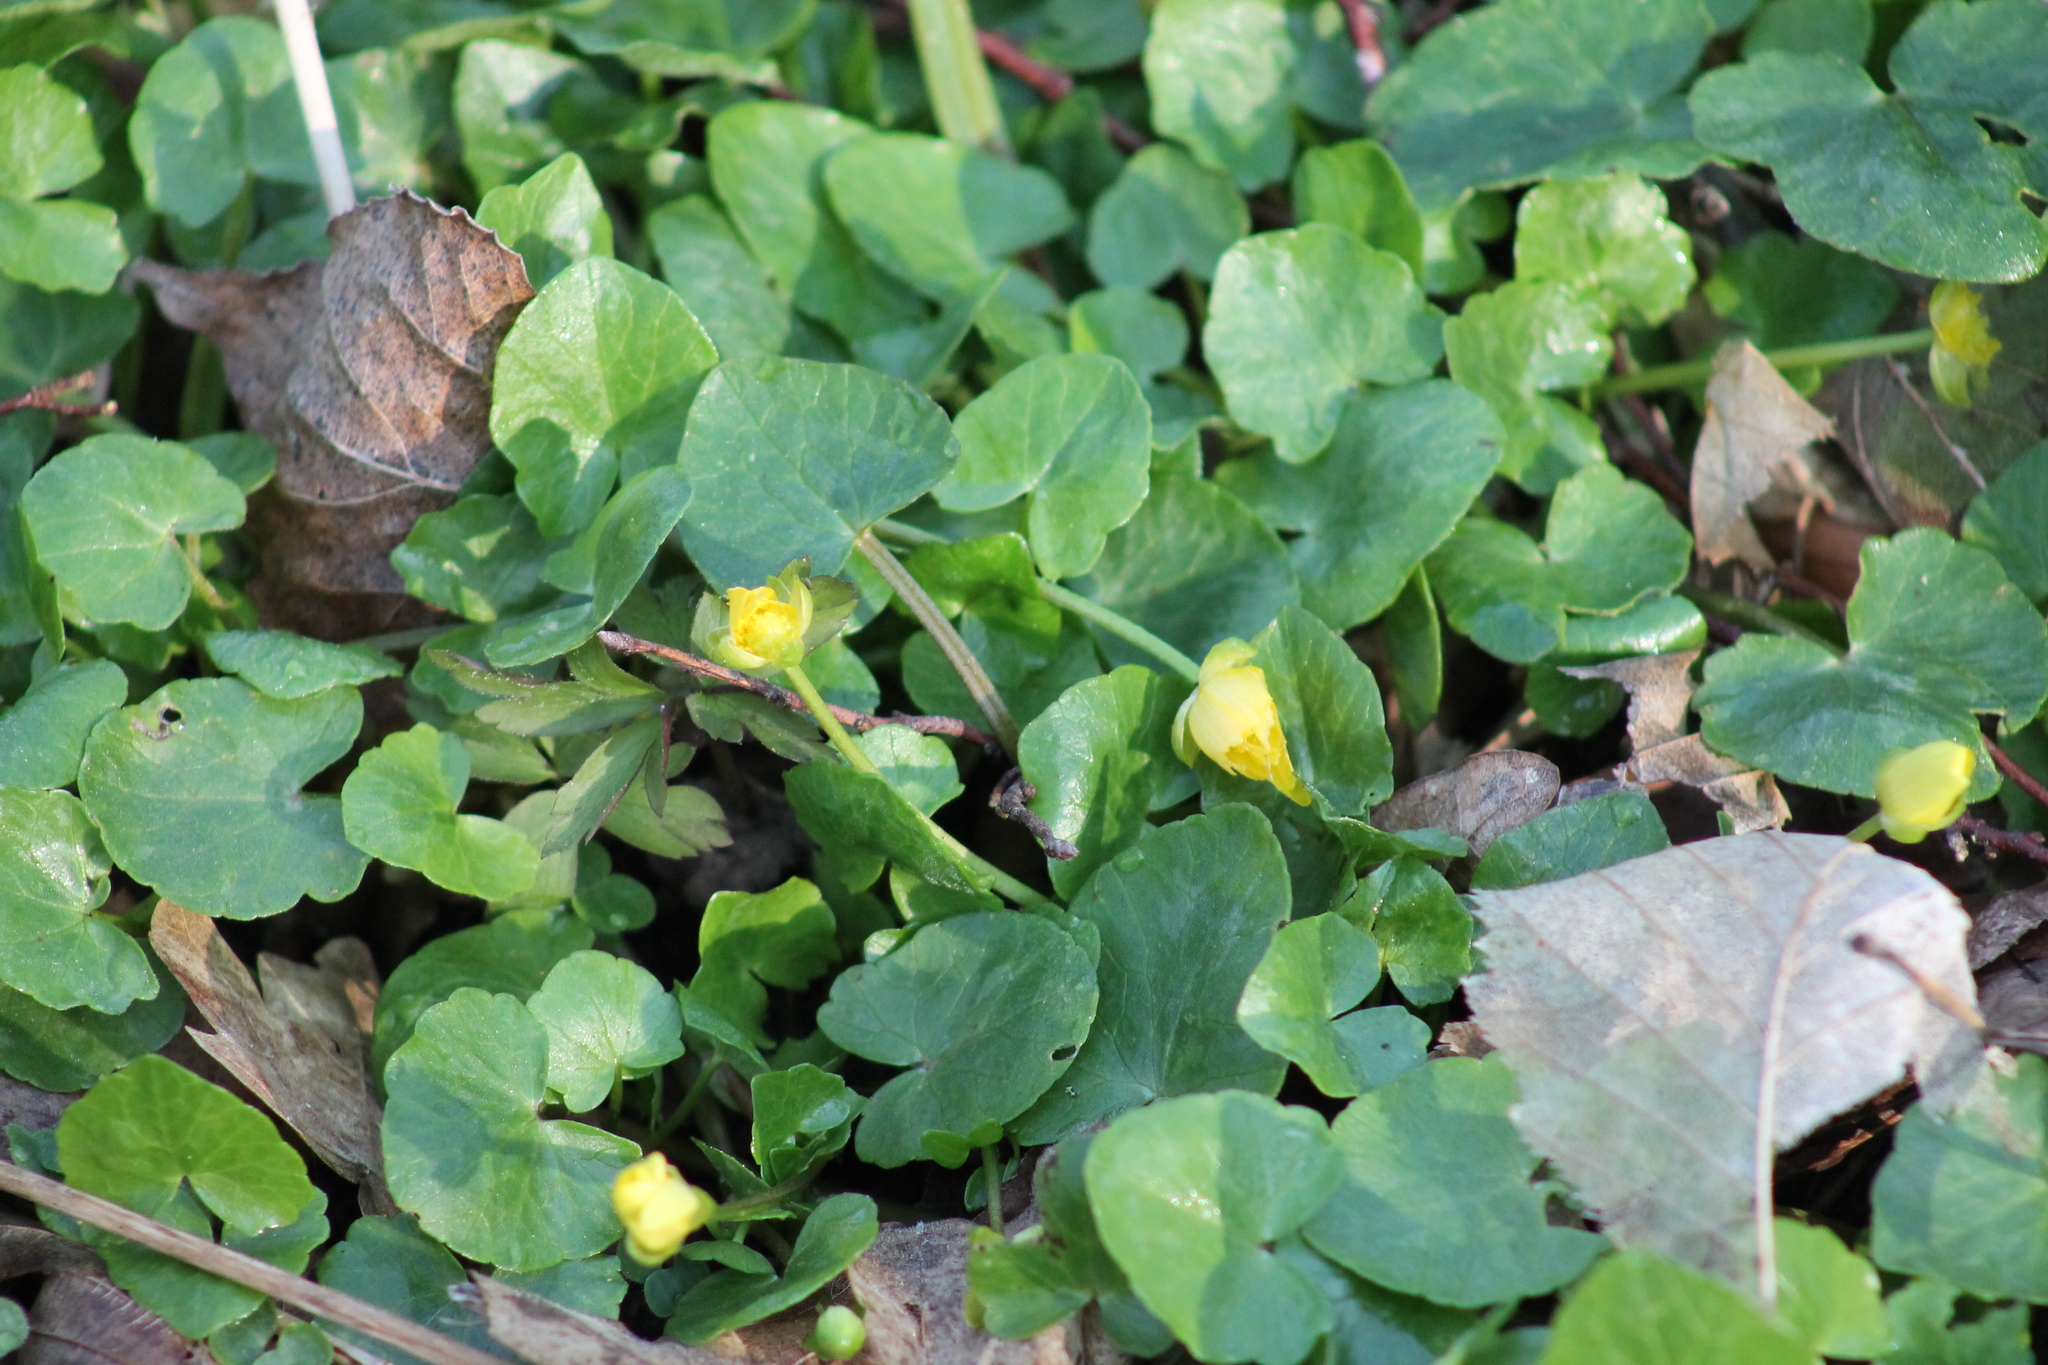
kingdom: Plantae
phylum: Tracheophyta
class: Magnoliopsida
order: Ranunculales
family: Ranunculaceae
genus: Ficaria
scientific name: Ficaria verna
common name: Lesser celandine
